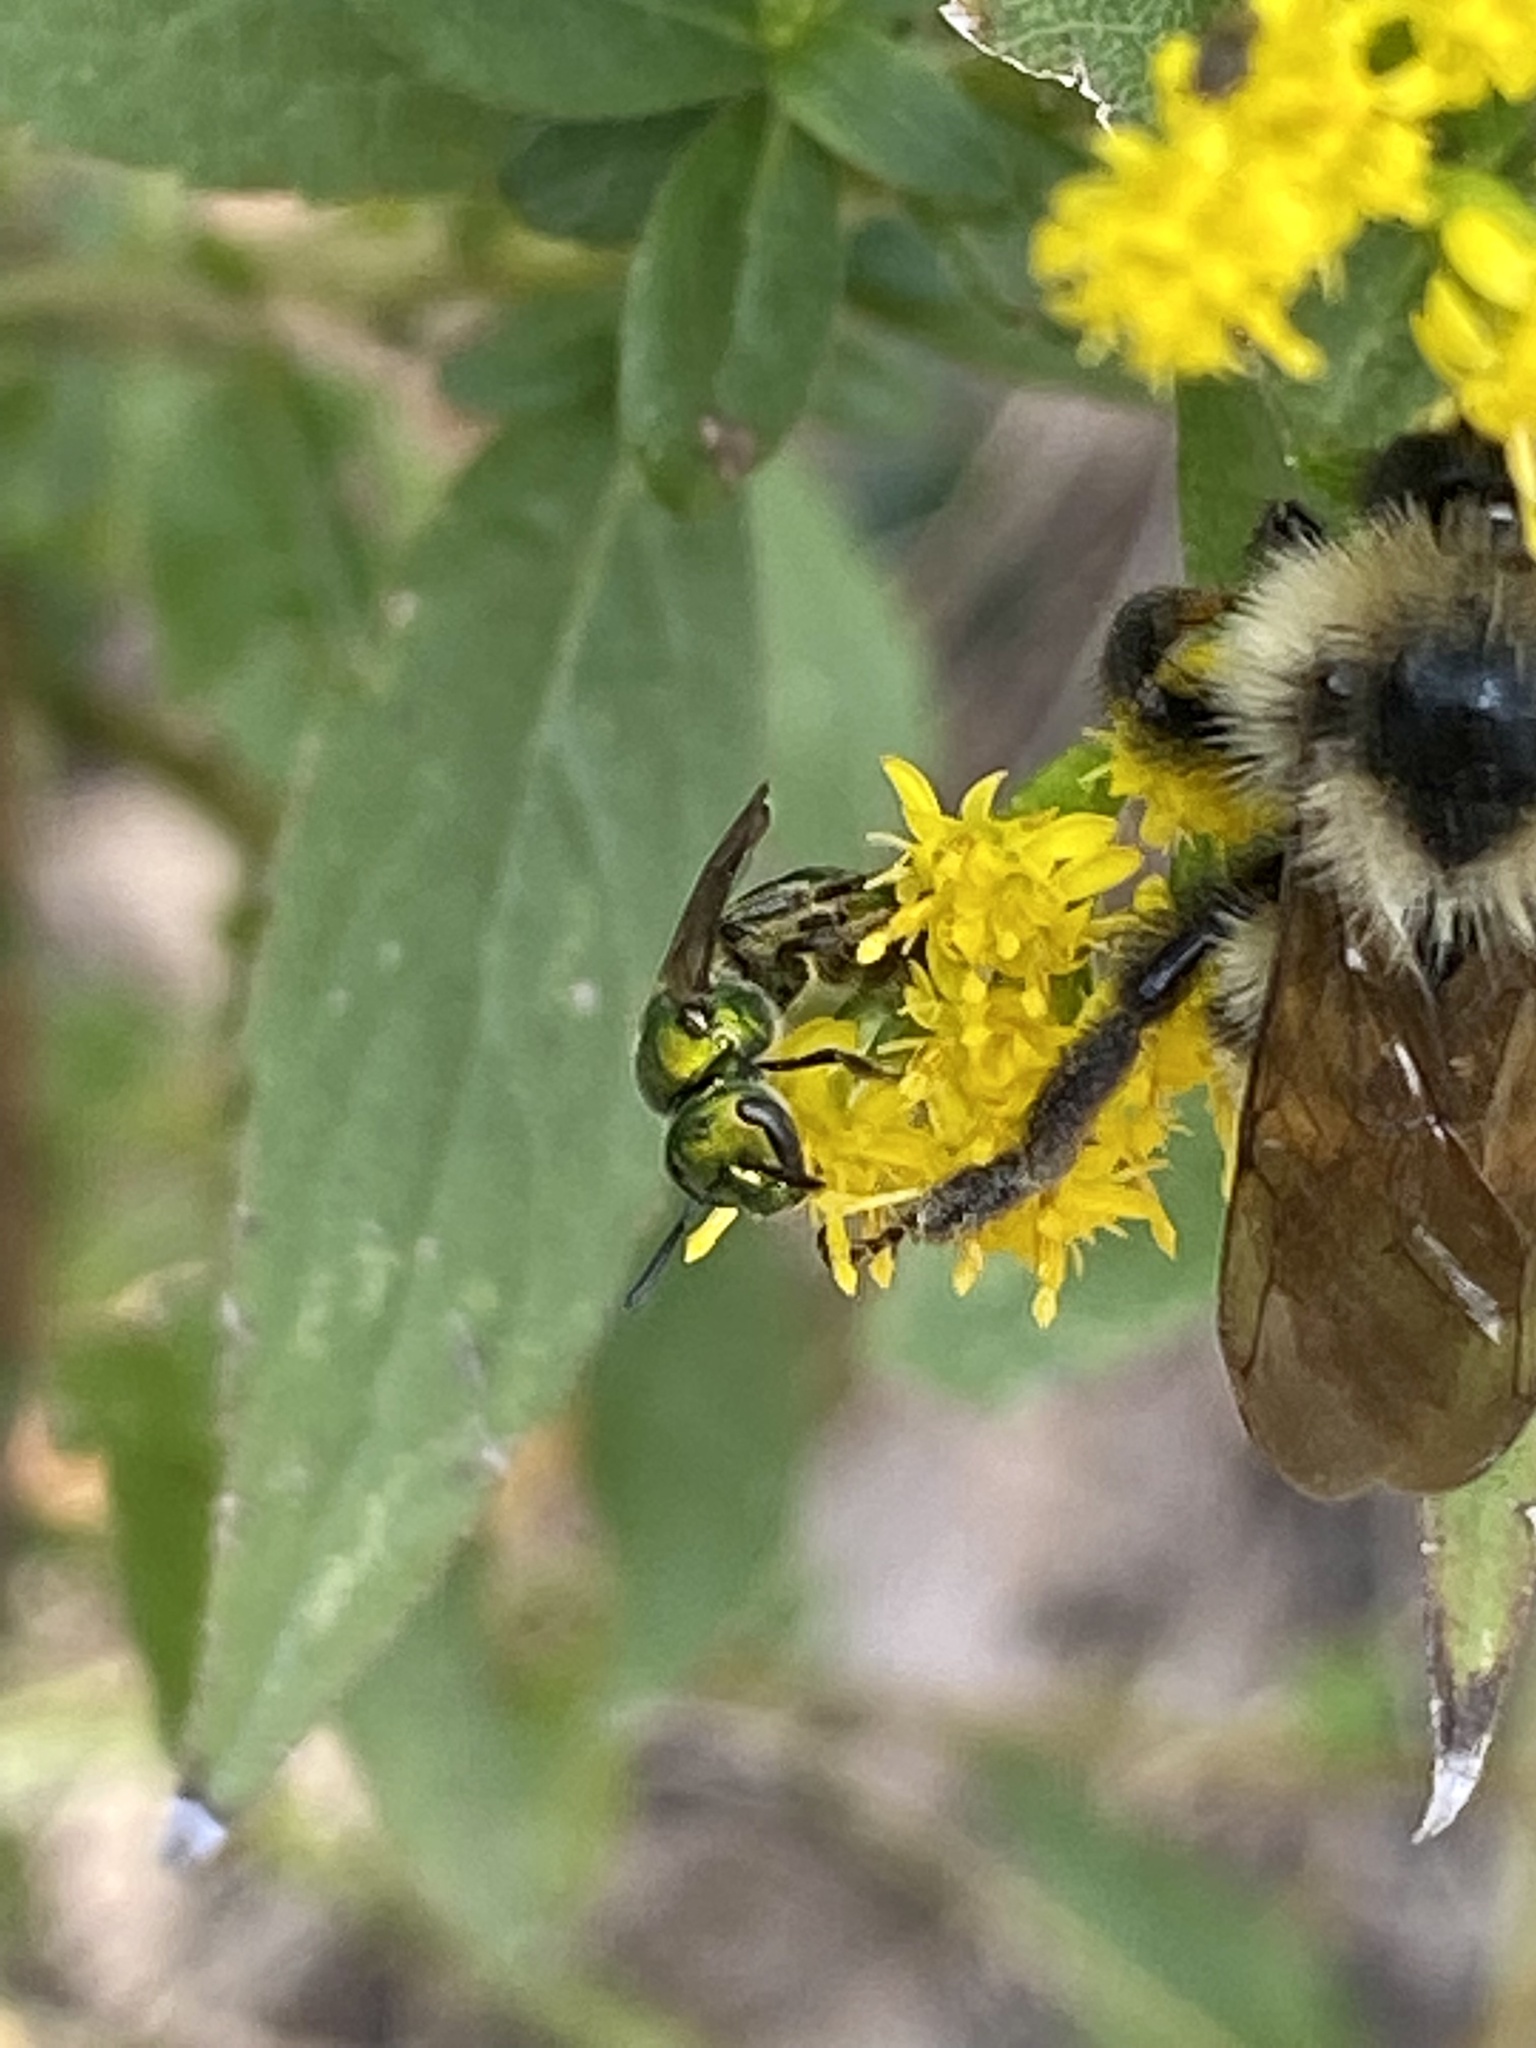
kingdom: Animalia
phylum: Arthropoda
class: Insecta
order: Hymenoptera
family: Halictidae
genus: Augochlora
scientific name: Augochlora pura
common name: Pure green sweat bee
